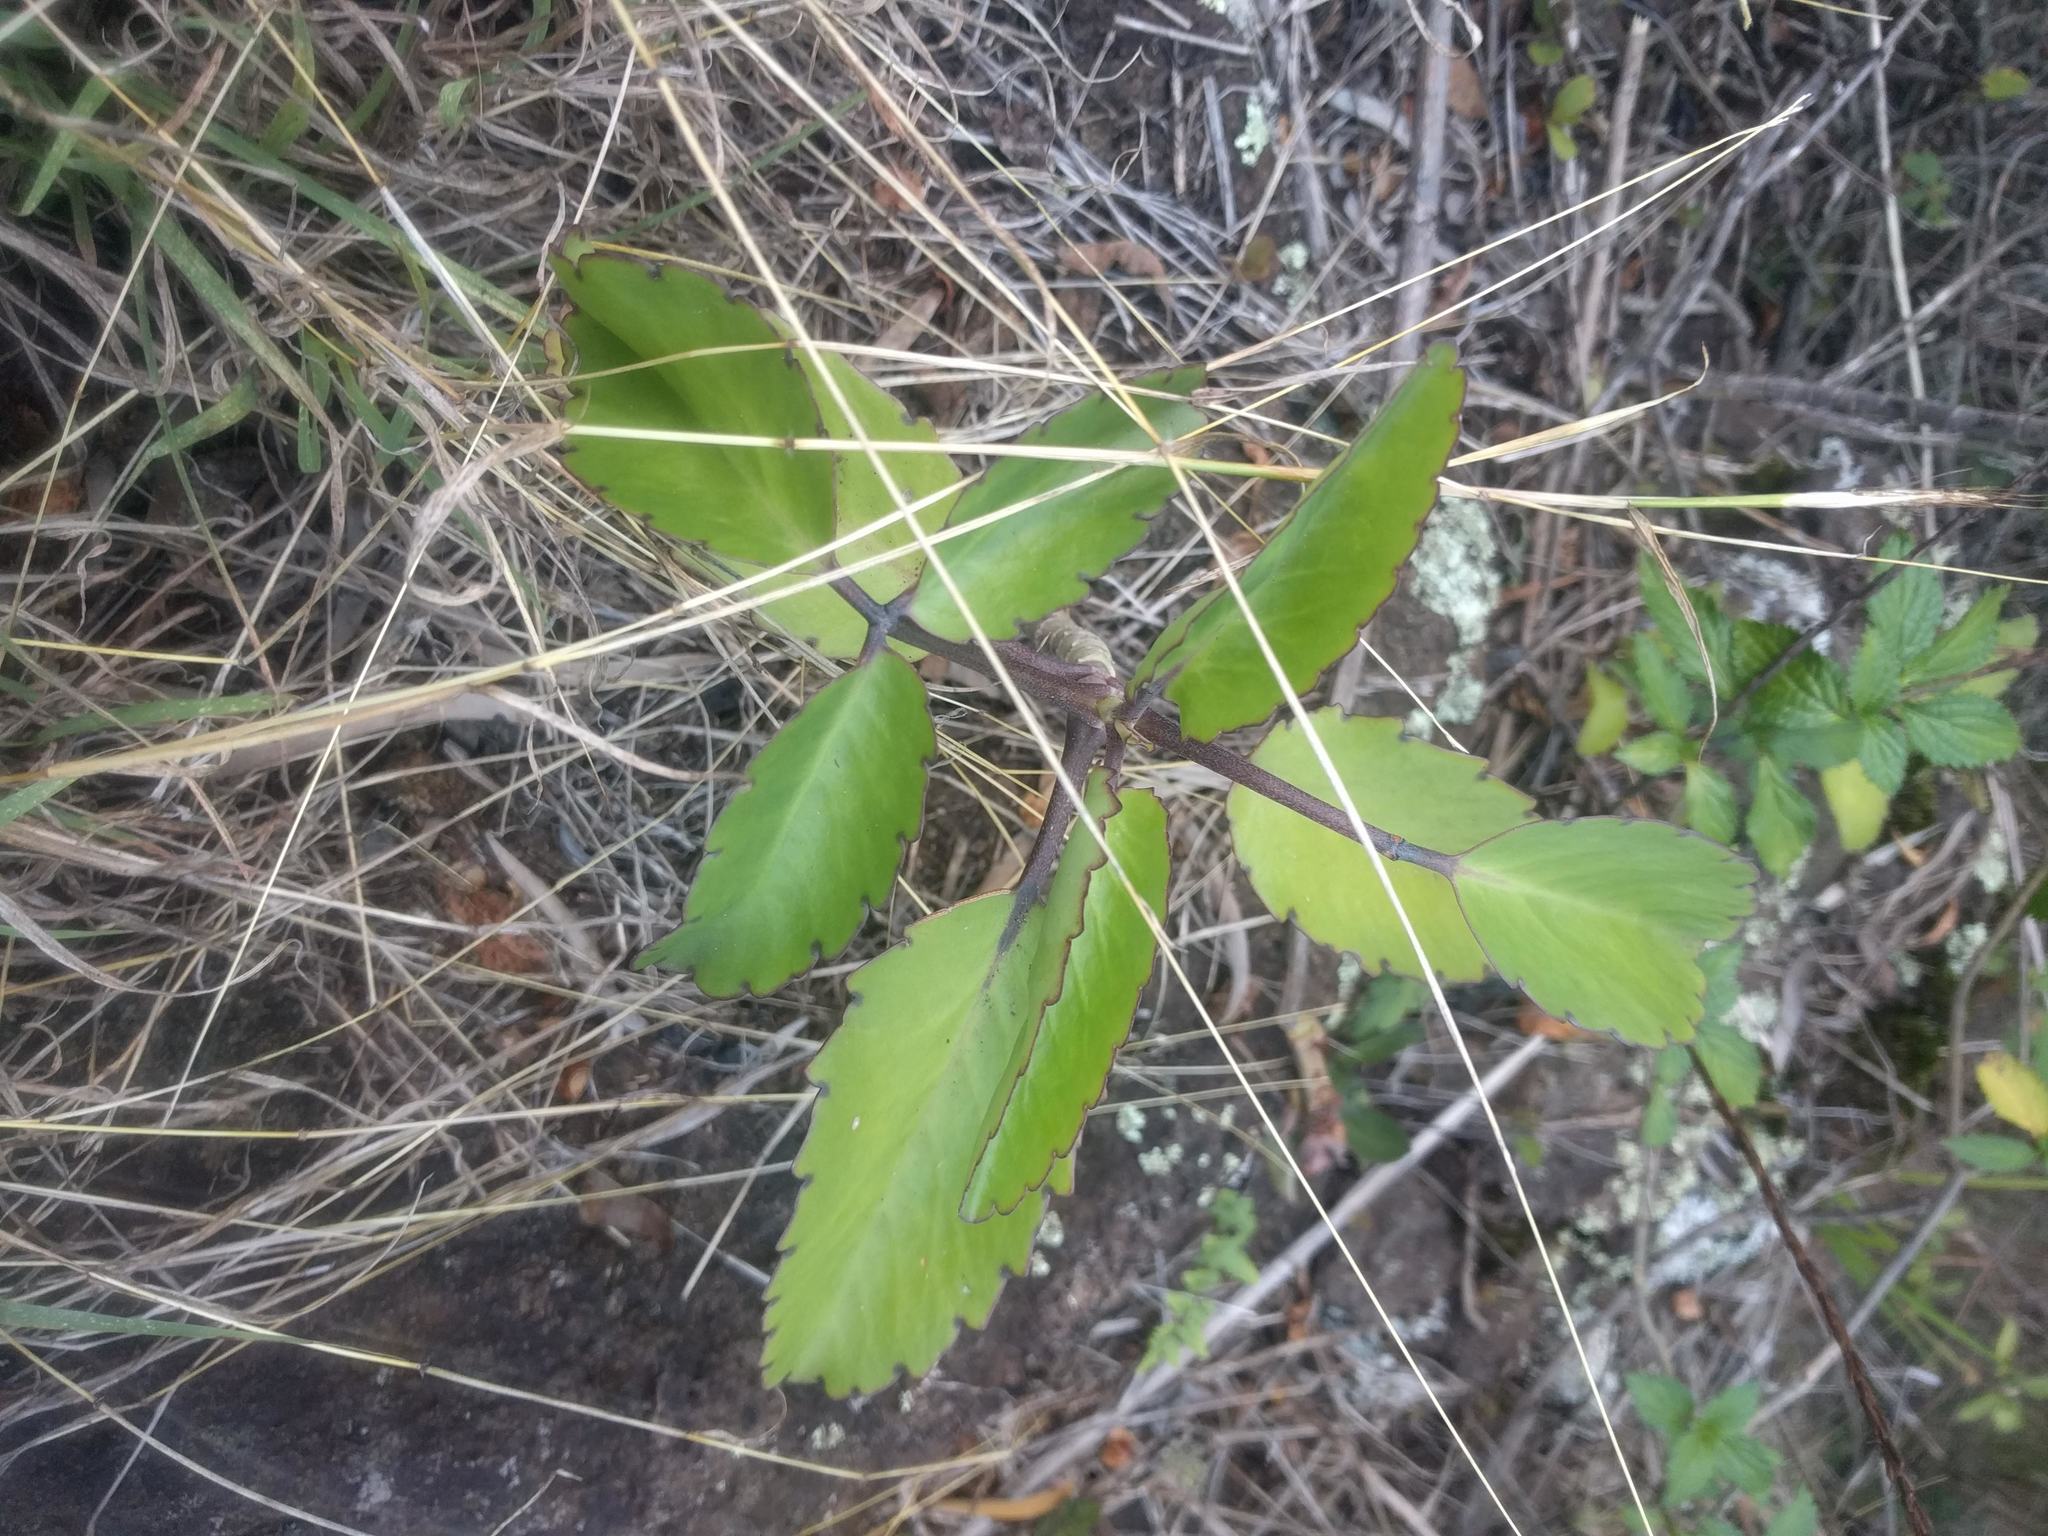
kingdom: Plantae
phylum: Tracheophyta
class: Magnoliopsida
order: Saxifragales
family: Crassulaceae
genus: Kalanchoe
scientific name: Kalanchoe pinnata
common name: Cathedral bells
